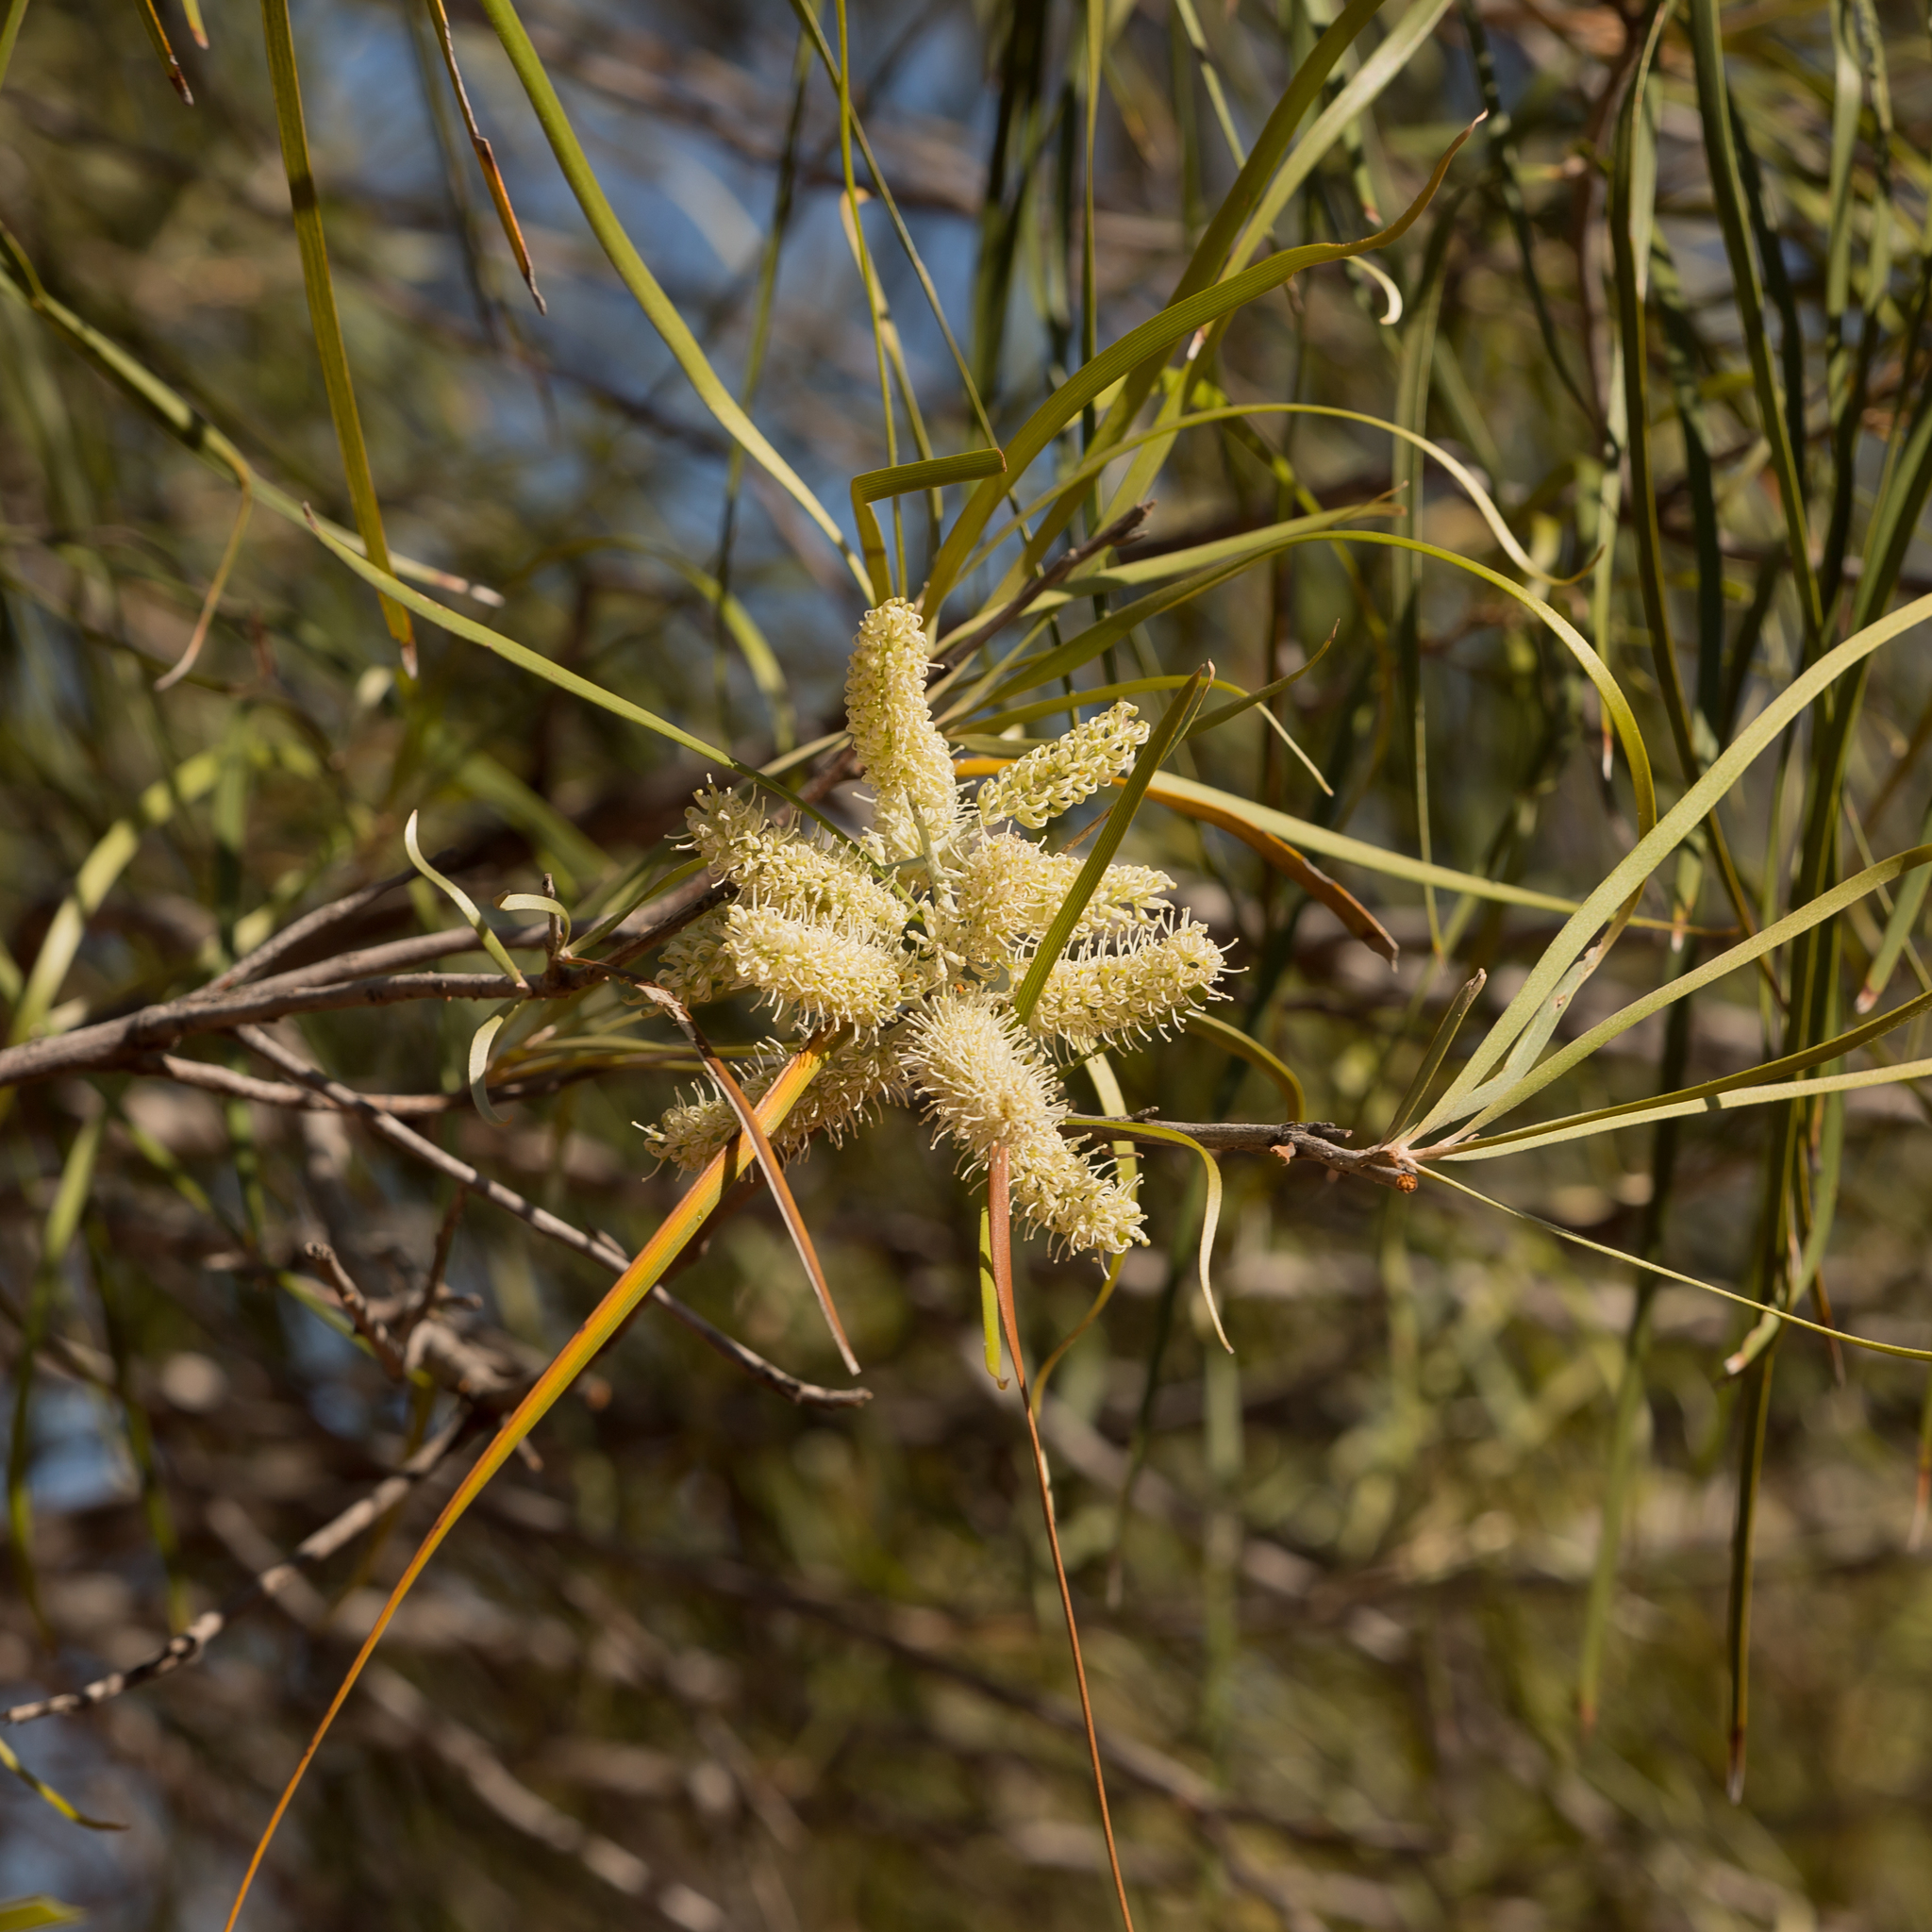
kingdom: Plantae
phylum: Tracheophyta
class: Magnoliopsida
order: Proteales
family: Proteaceae
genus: Grevillea
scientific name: Grevillea striata
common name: Beefwood
